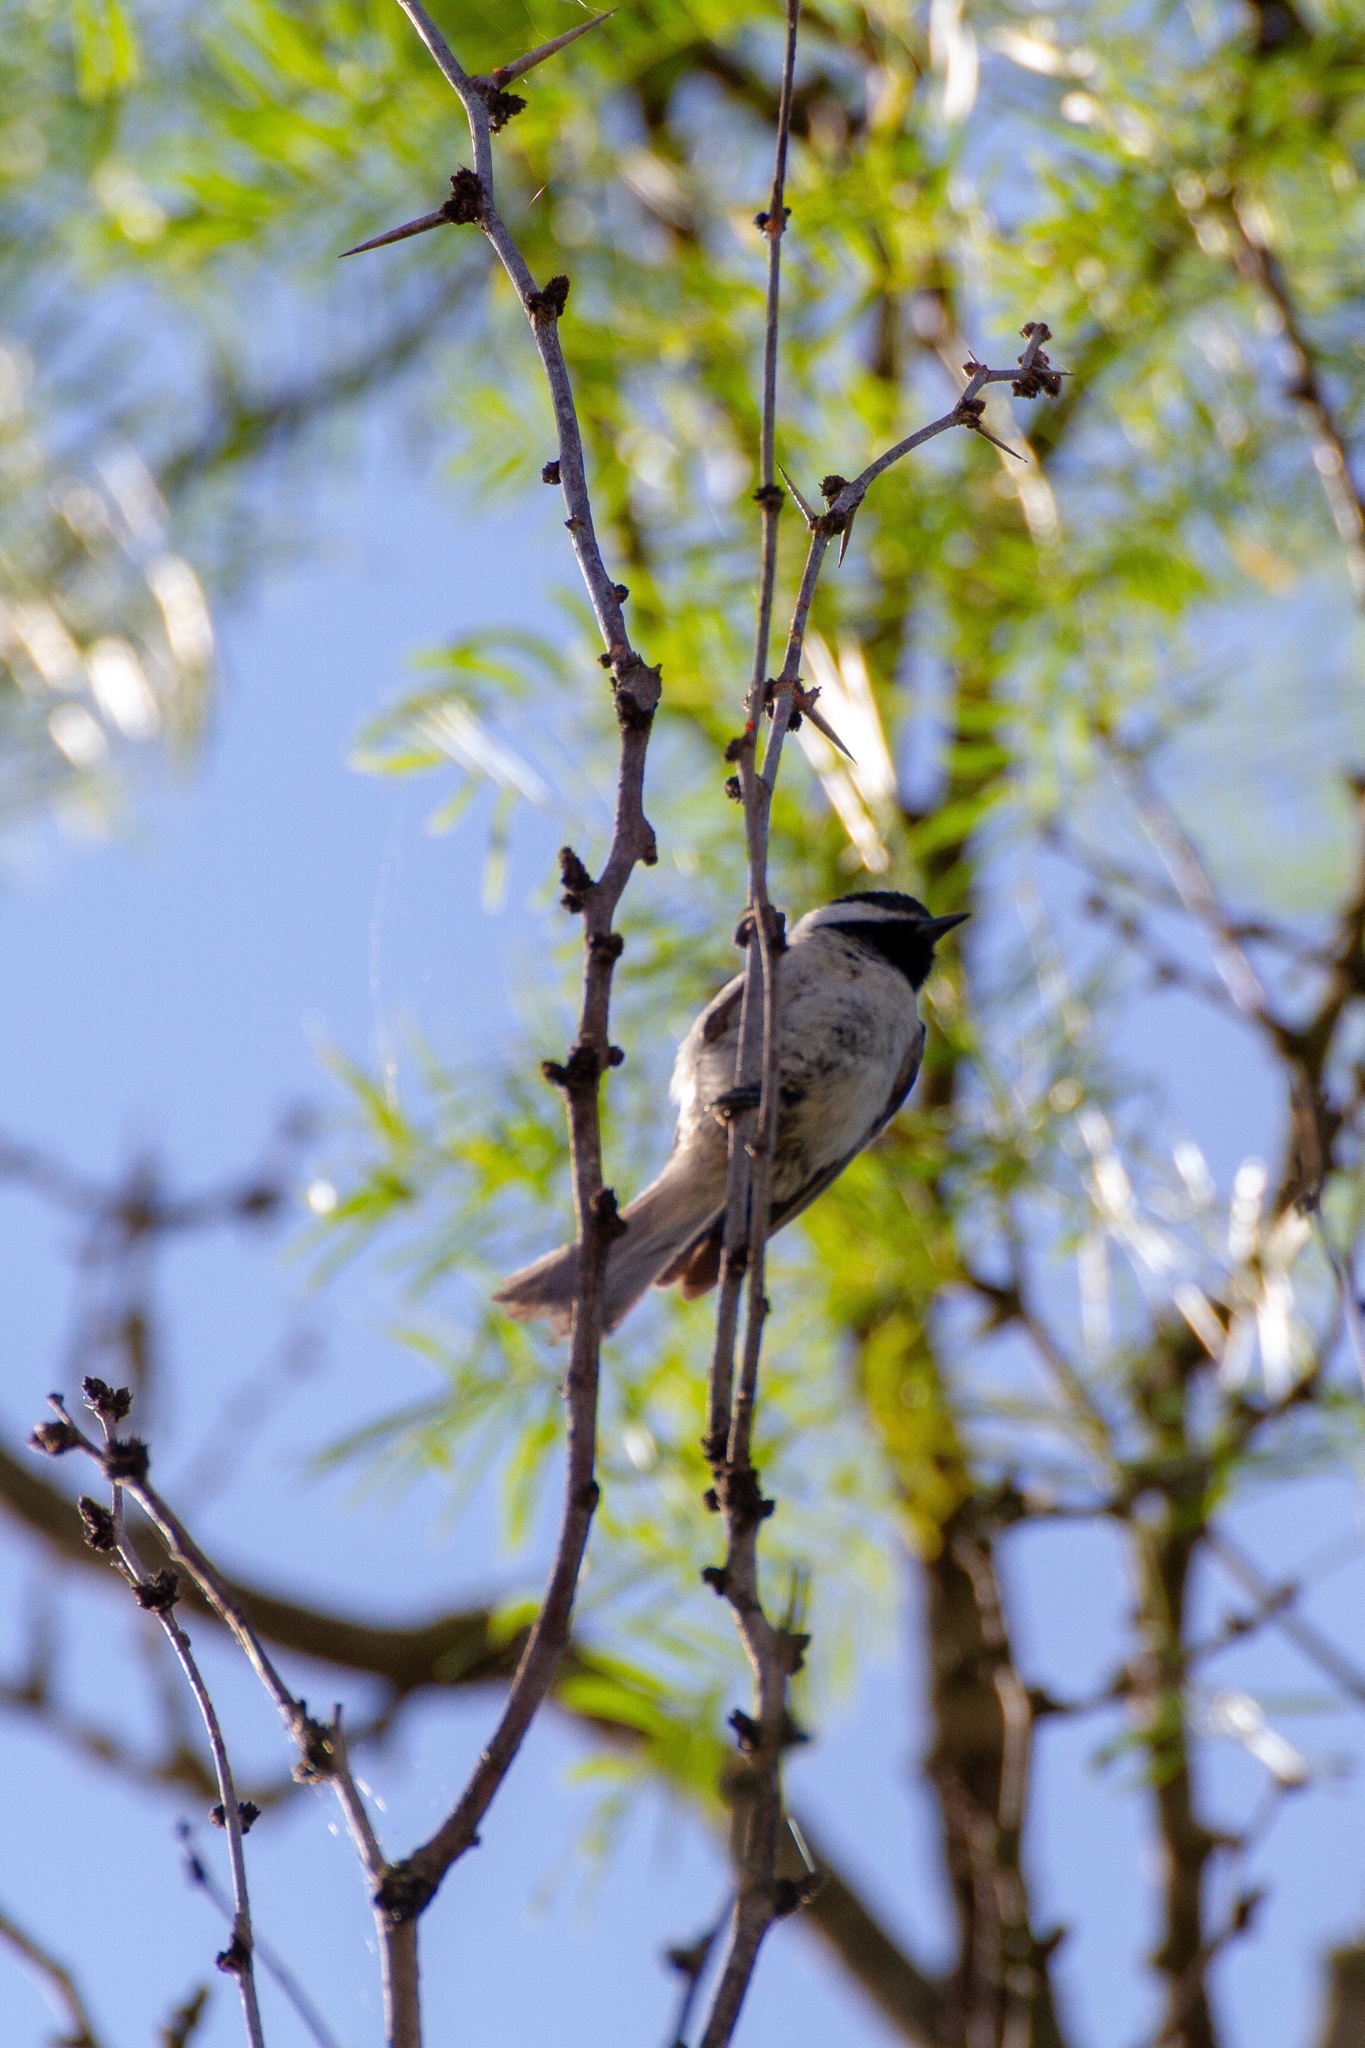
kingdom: Animalia
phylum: Chordata
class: Aves
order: Passeriformes
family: Paridae
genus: Poecile
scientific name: Poecile carolinensis
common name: Carolina chickadee
